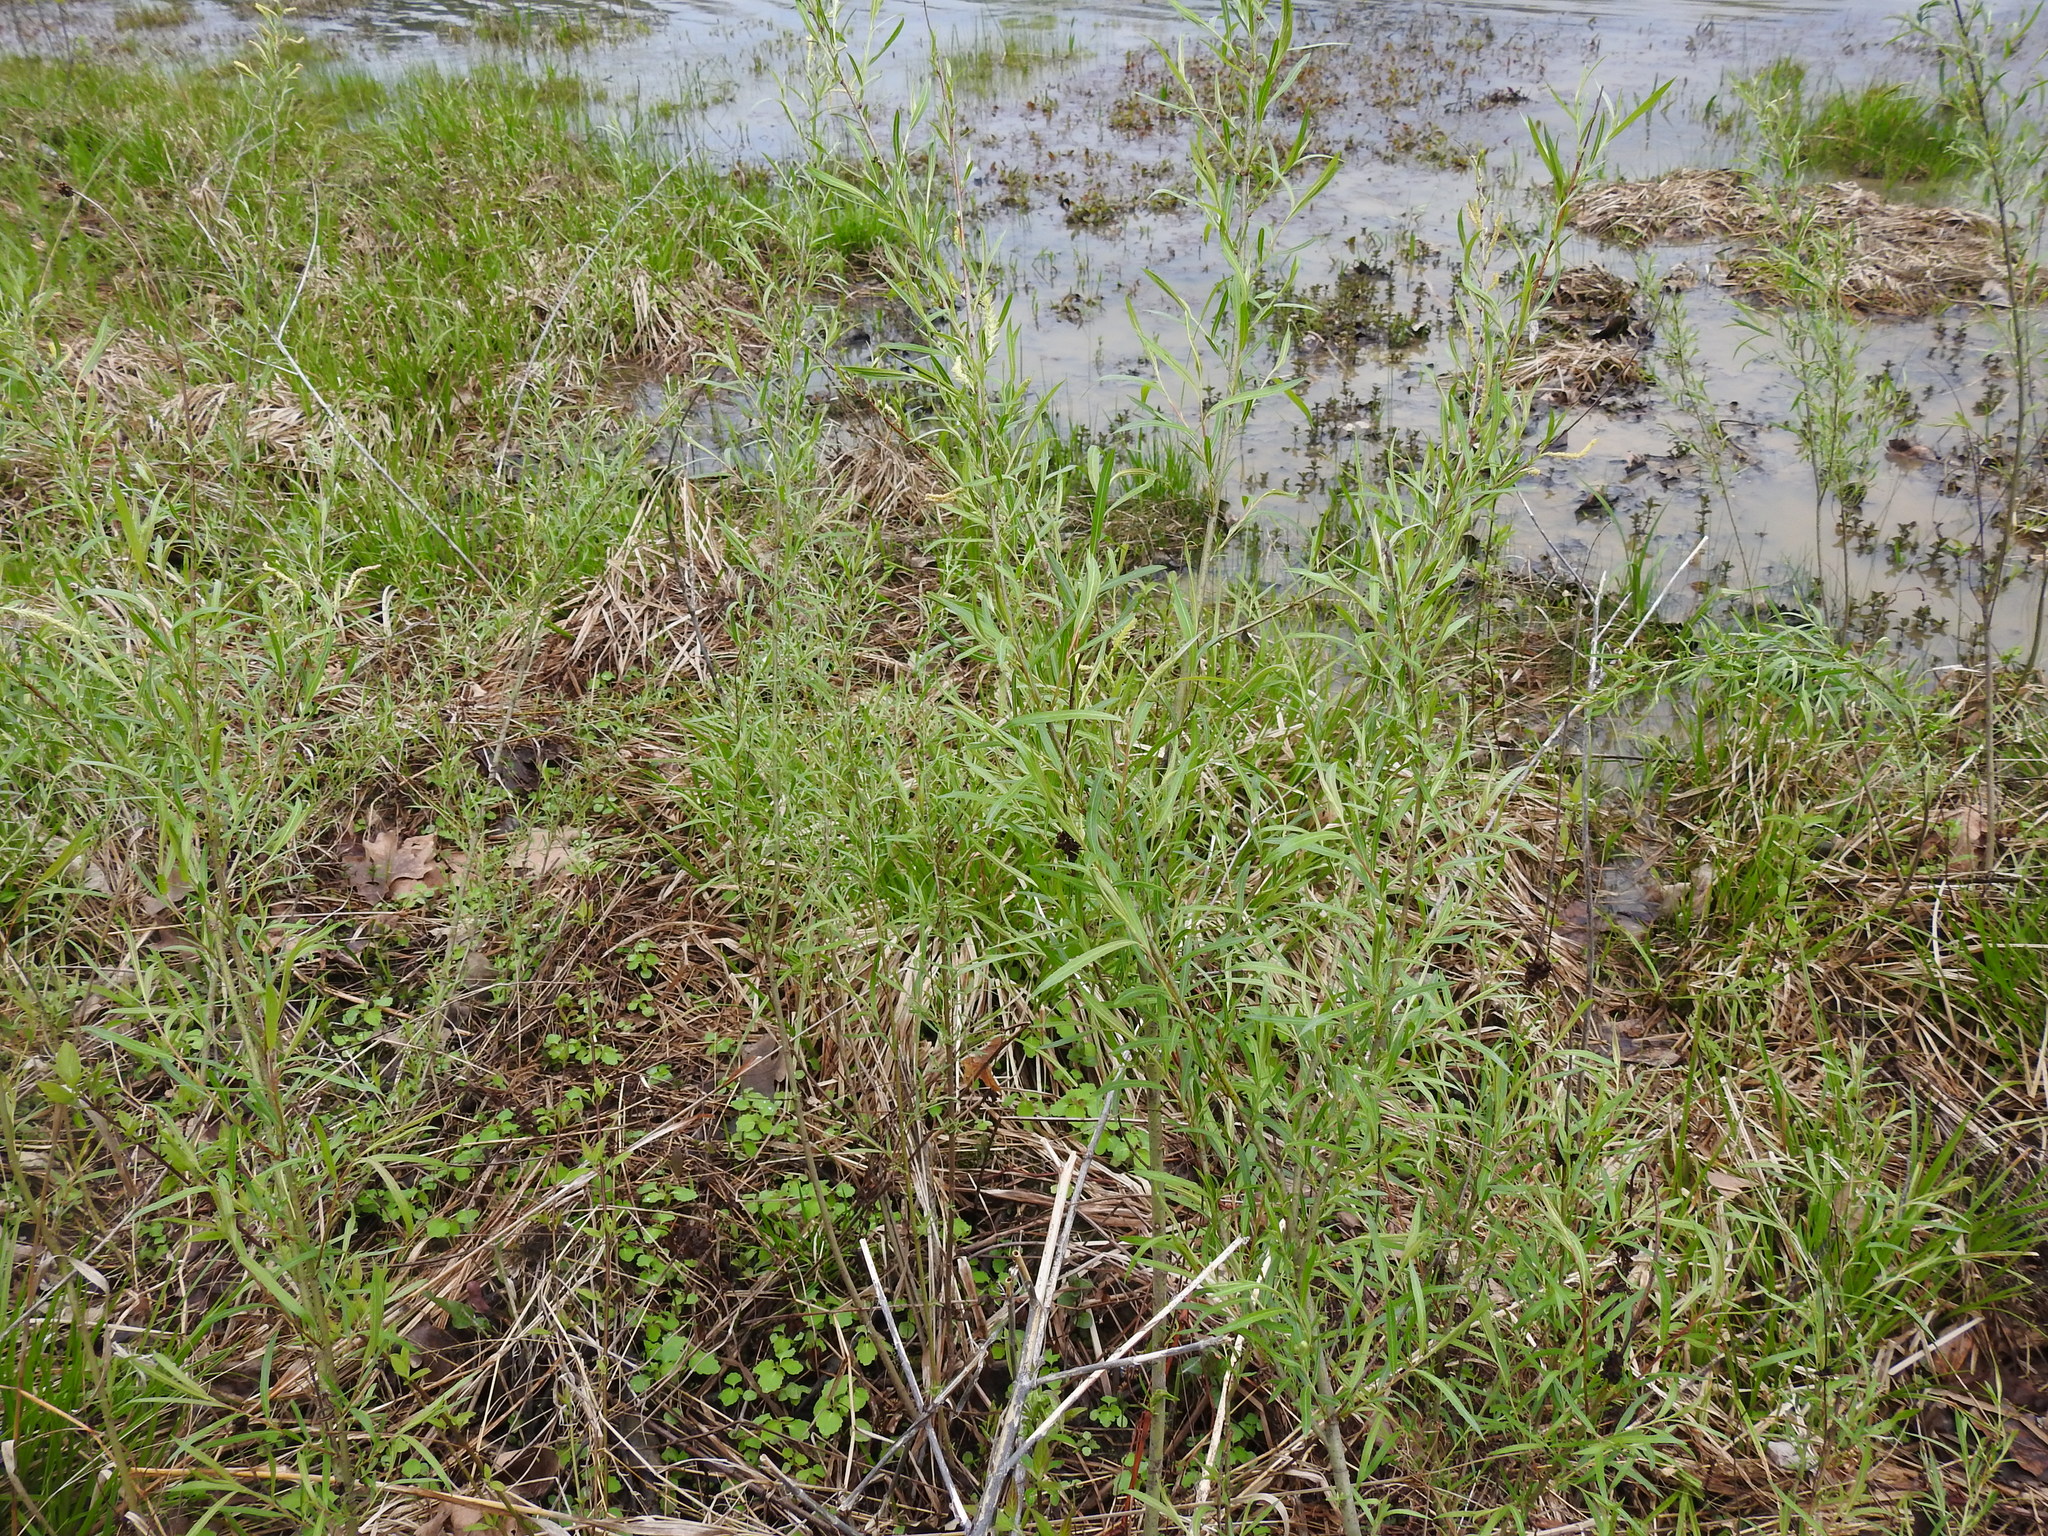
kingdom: Plantae
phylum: Tracheophyta
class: Magnoliopsida
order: Malpighiales
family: Salicaceae
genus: Salix
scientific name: Salix interior
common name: Sandbar willow
